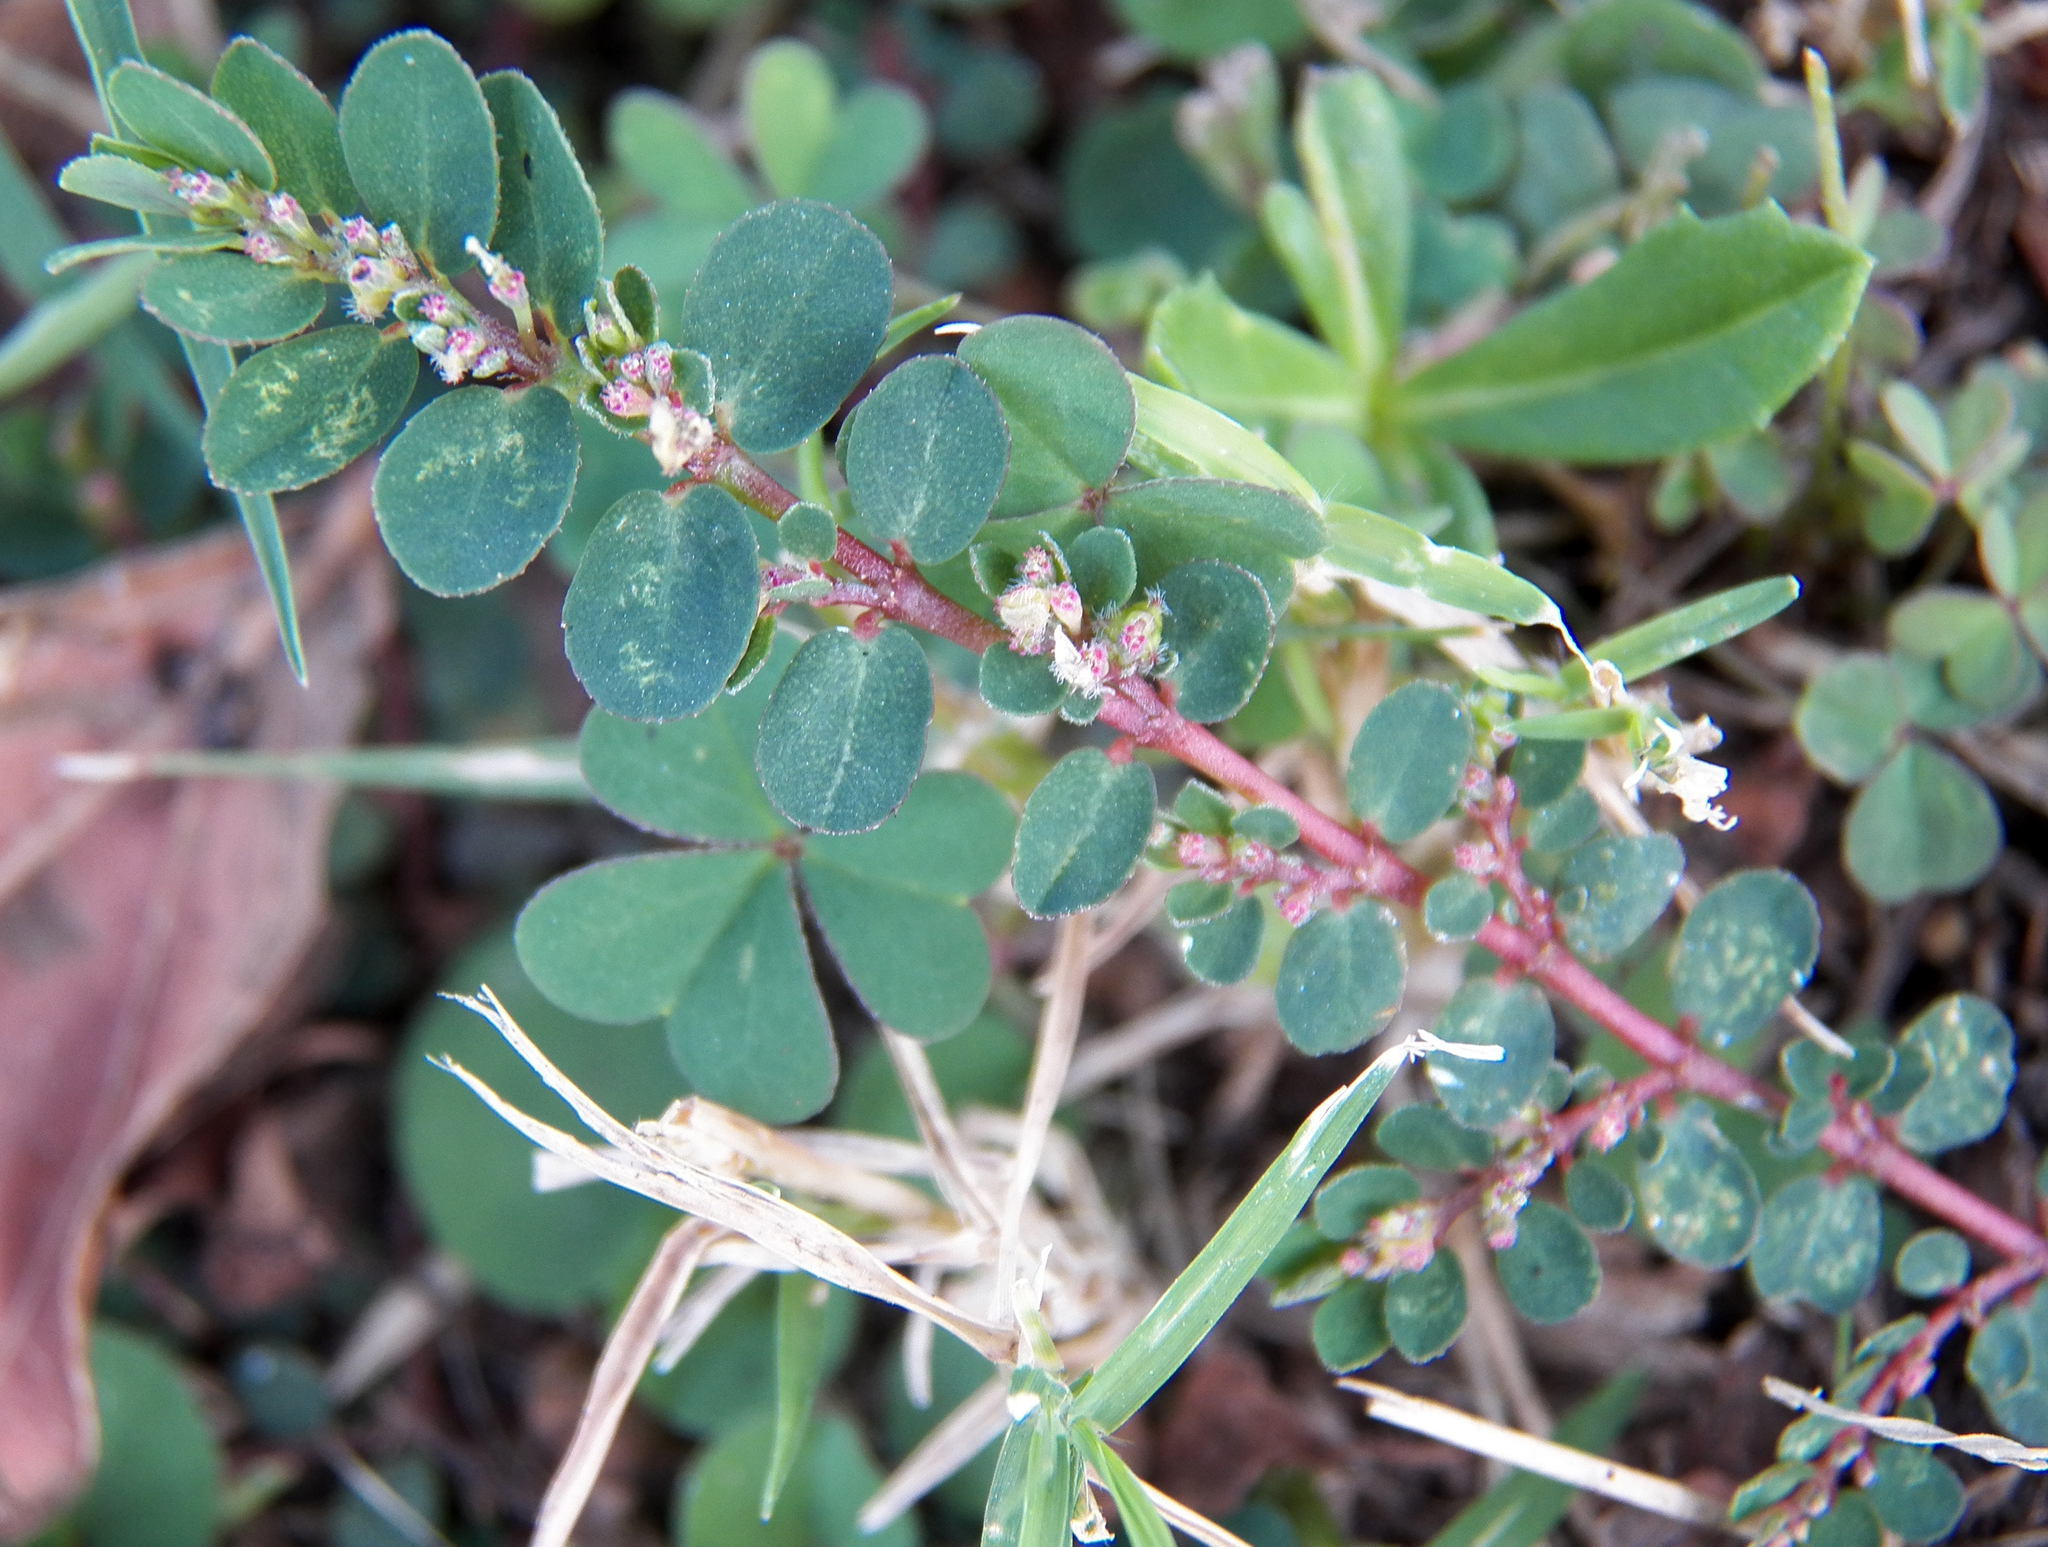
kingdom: Plantae
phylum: Tracheophyta
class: Magnoliopsida
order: Malpighiales
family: Euphorbiaceae
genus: Euphorbia
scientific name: Euphorbia prostrata
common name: Prostrate sandmat
